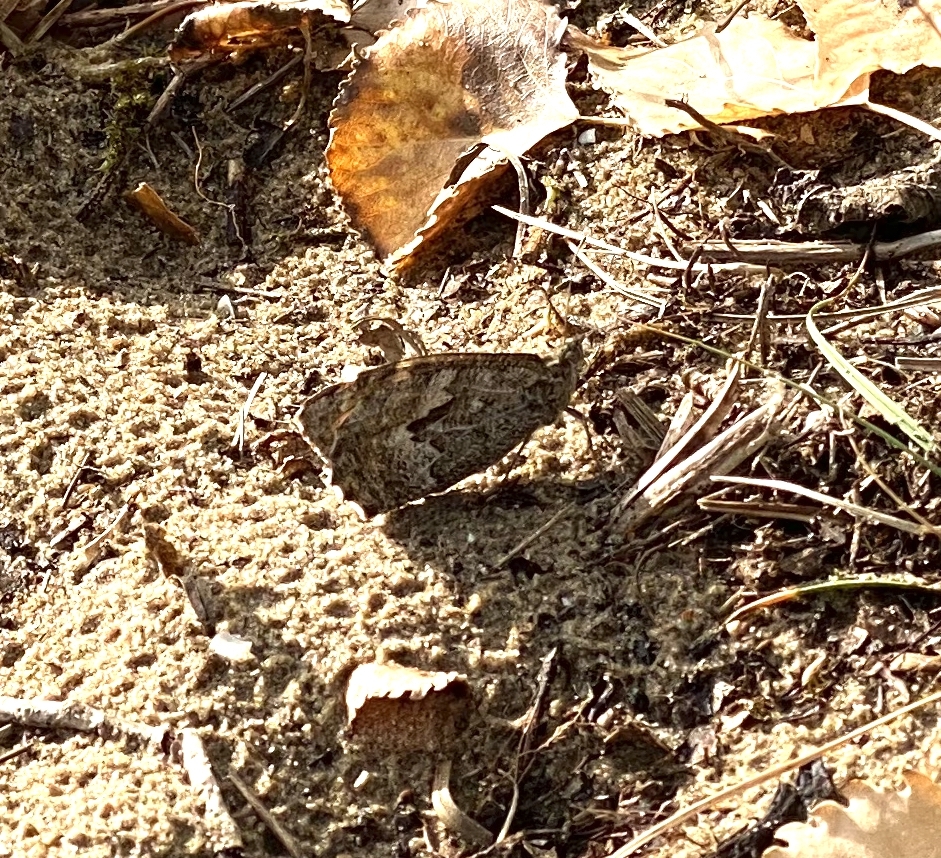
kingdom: Animalia
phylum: Arthropoda
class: Insecta
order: Lepidoptera
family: Nymphalidae
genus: Hipparchia
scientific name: Hipparchia semele
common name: Grayling
